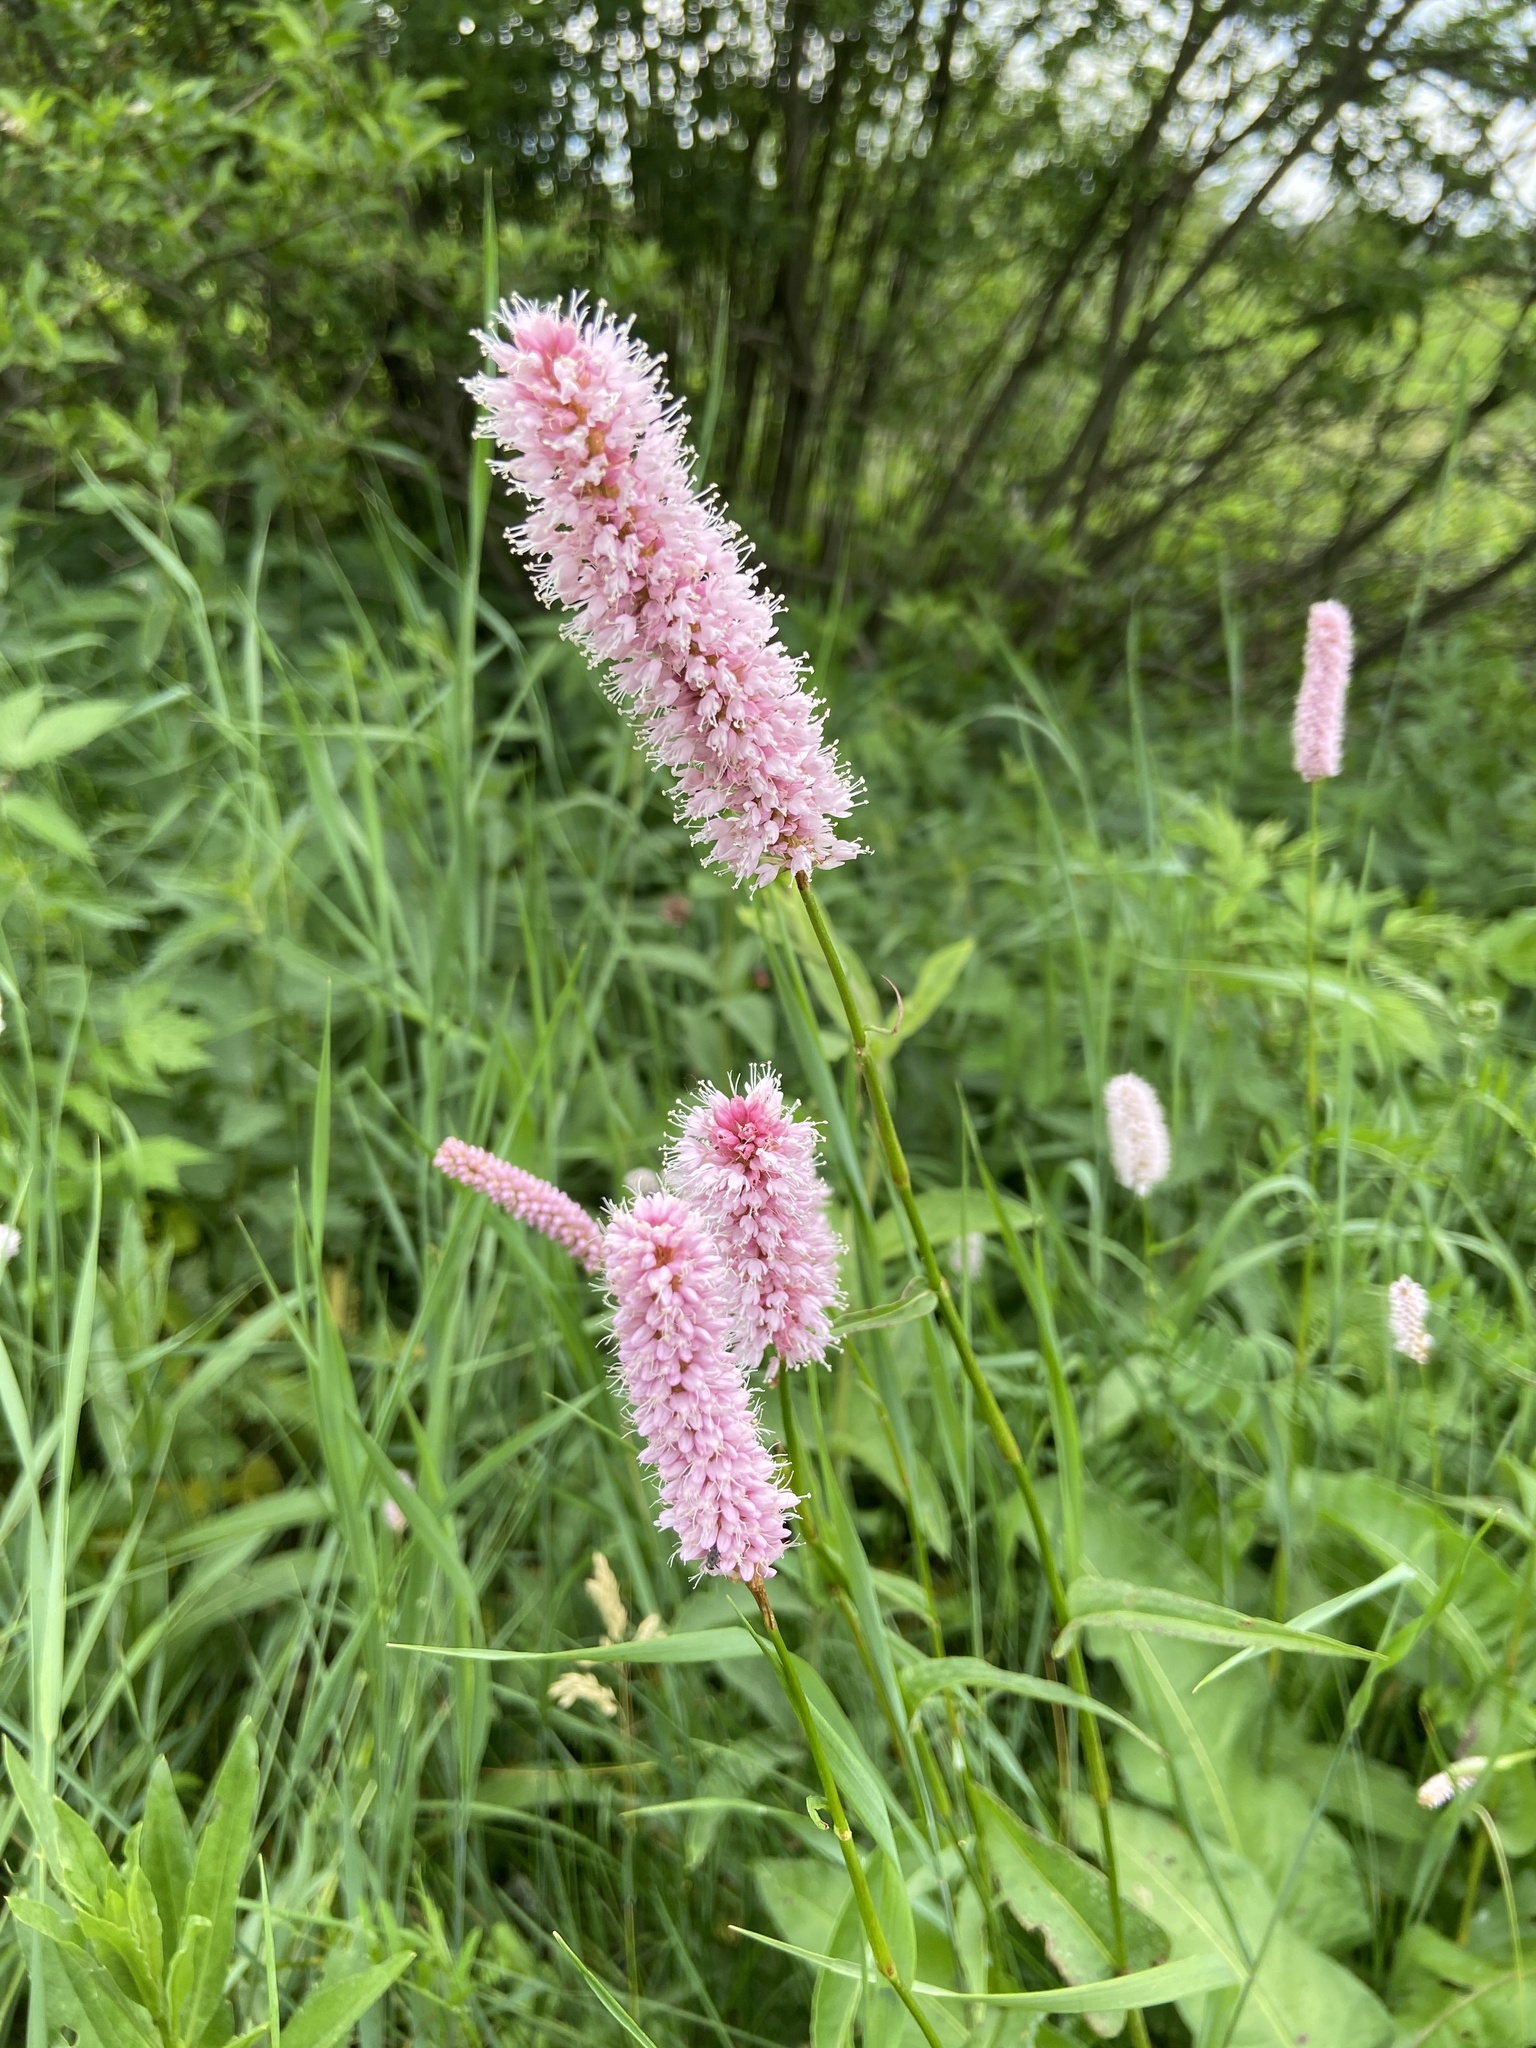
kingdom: Plantae
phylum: Tracheophyta
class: Magnoliopsida
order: Caryophyllales
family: Polygonaceae
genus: Bistorta
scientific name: Bistorta officinalis
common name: Common bistort
